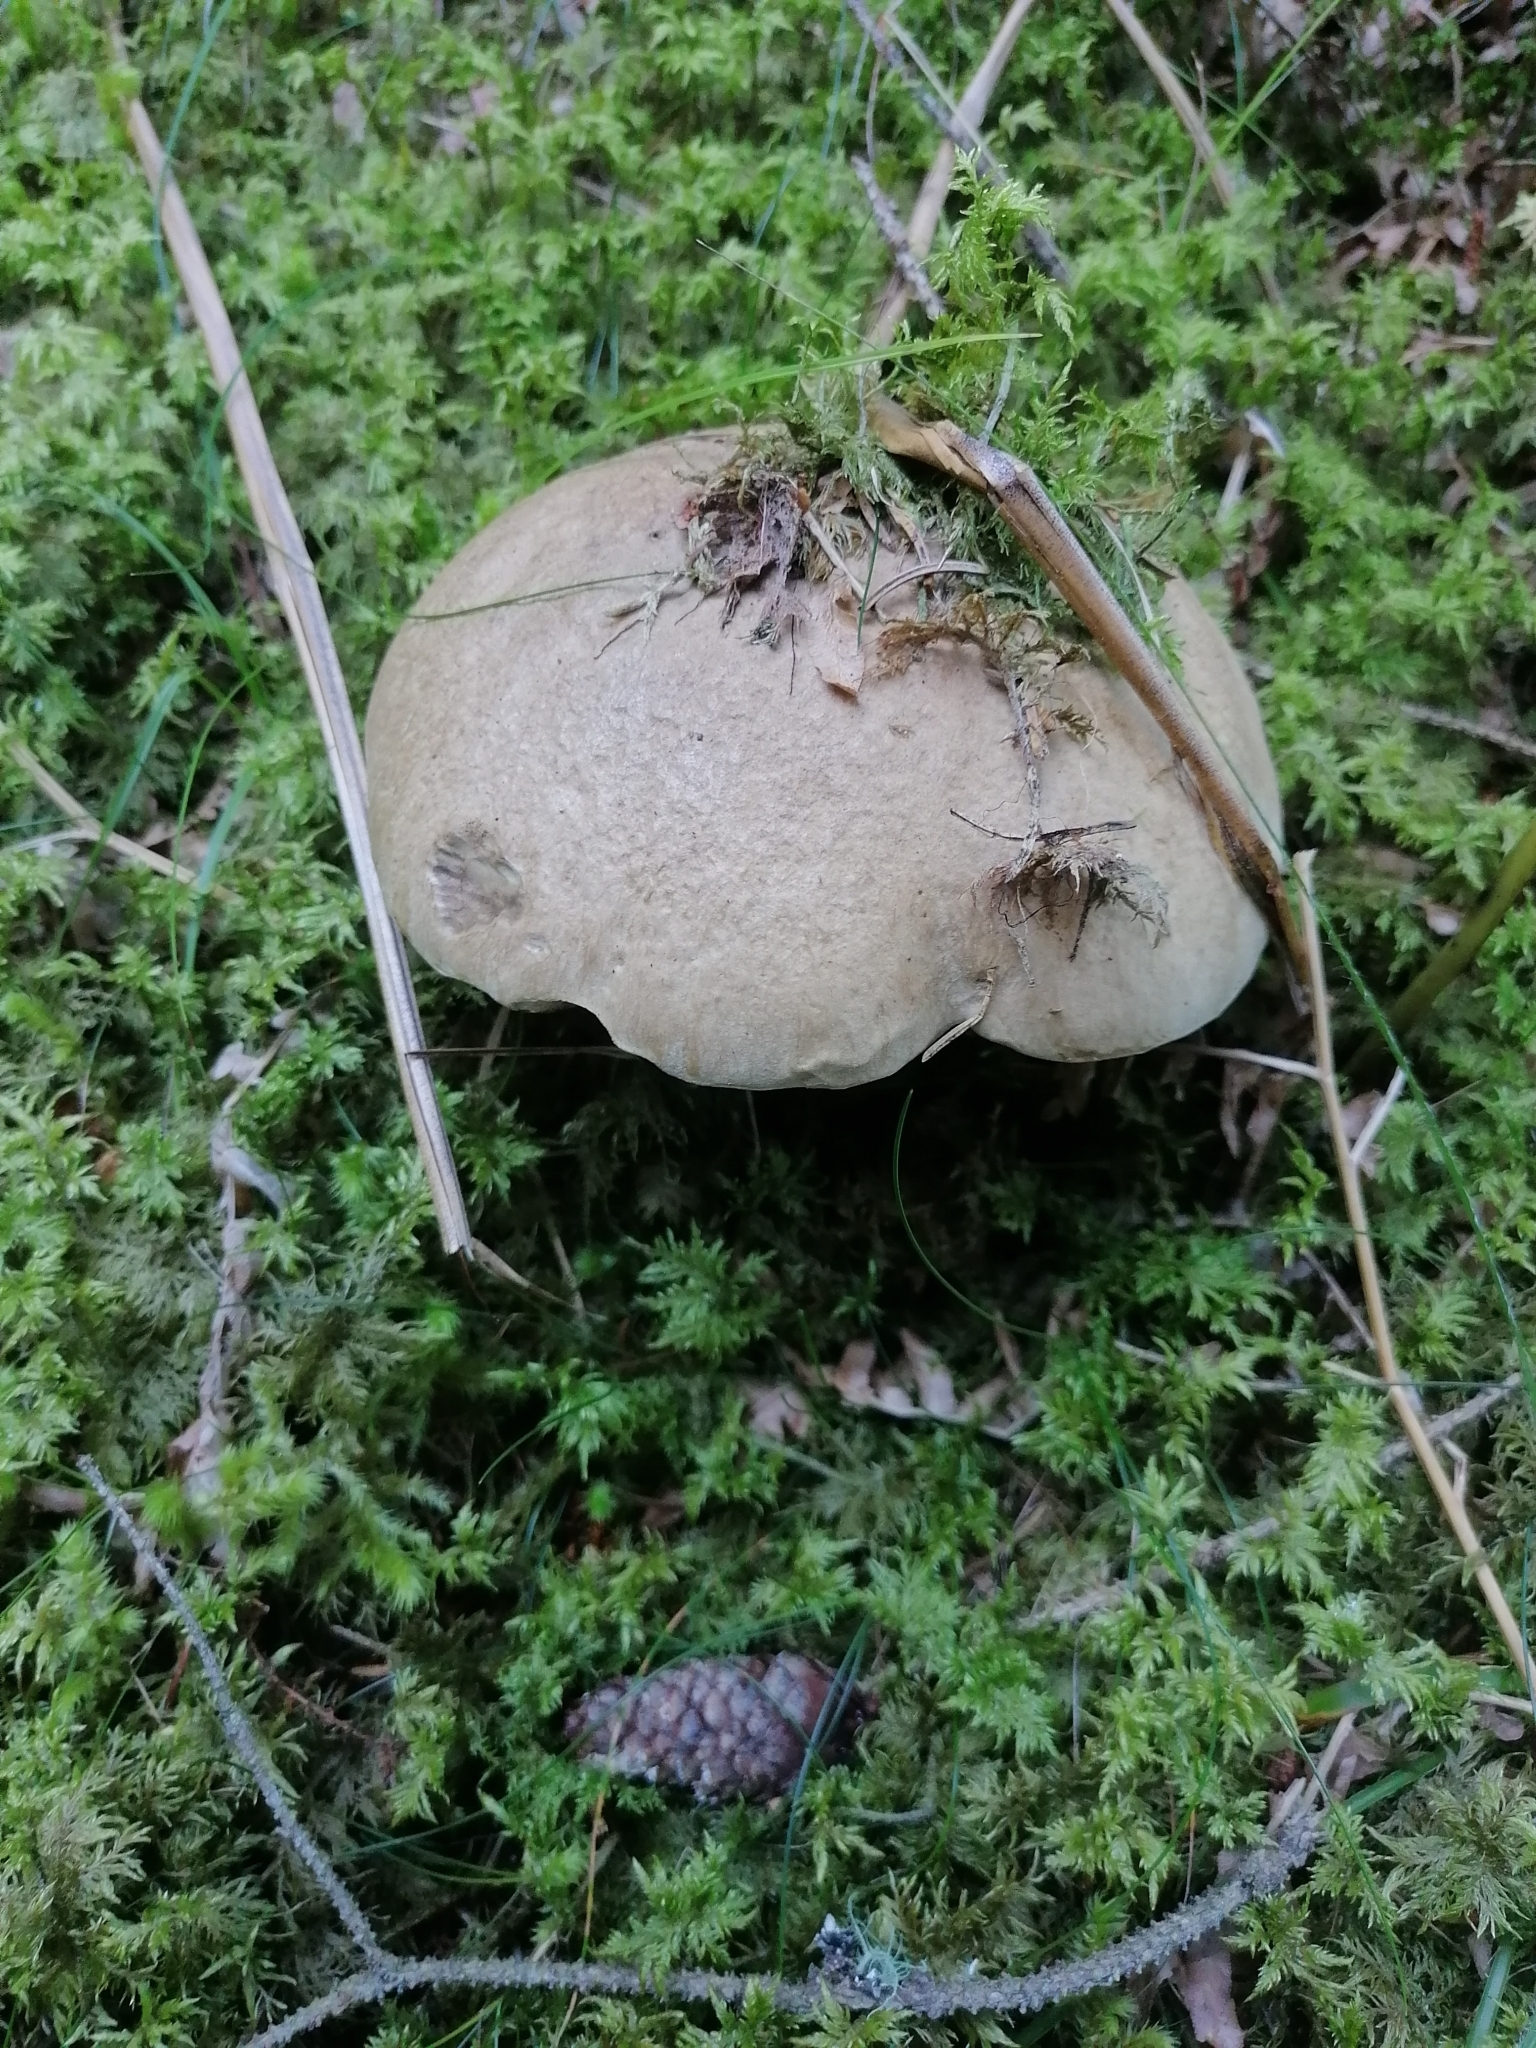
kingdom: Fungi
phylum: Basidiomycota
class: Agaricomycetes
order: Boletales
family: Boletaceae
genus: Caloboletus
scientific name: Caloboletus calopus
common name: Bitter beech bolete
